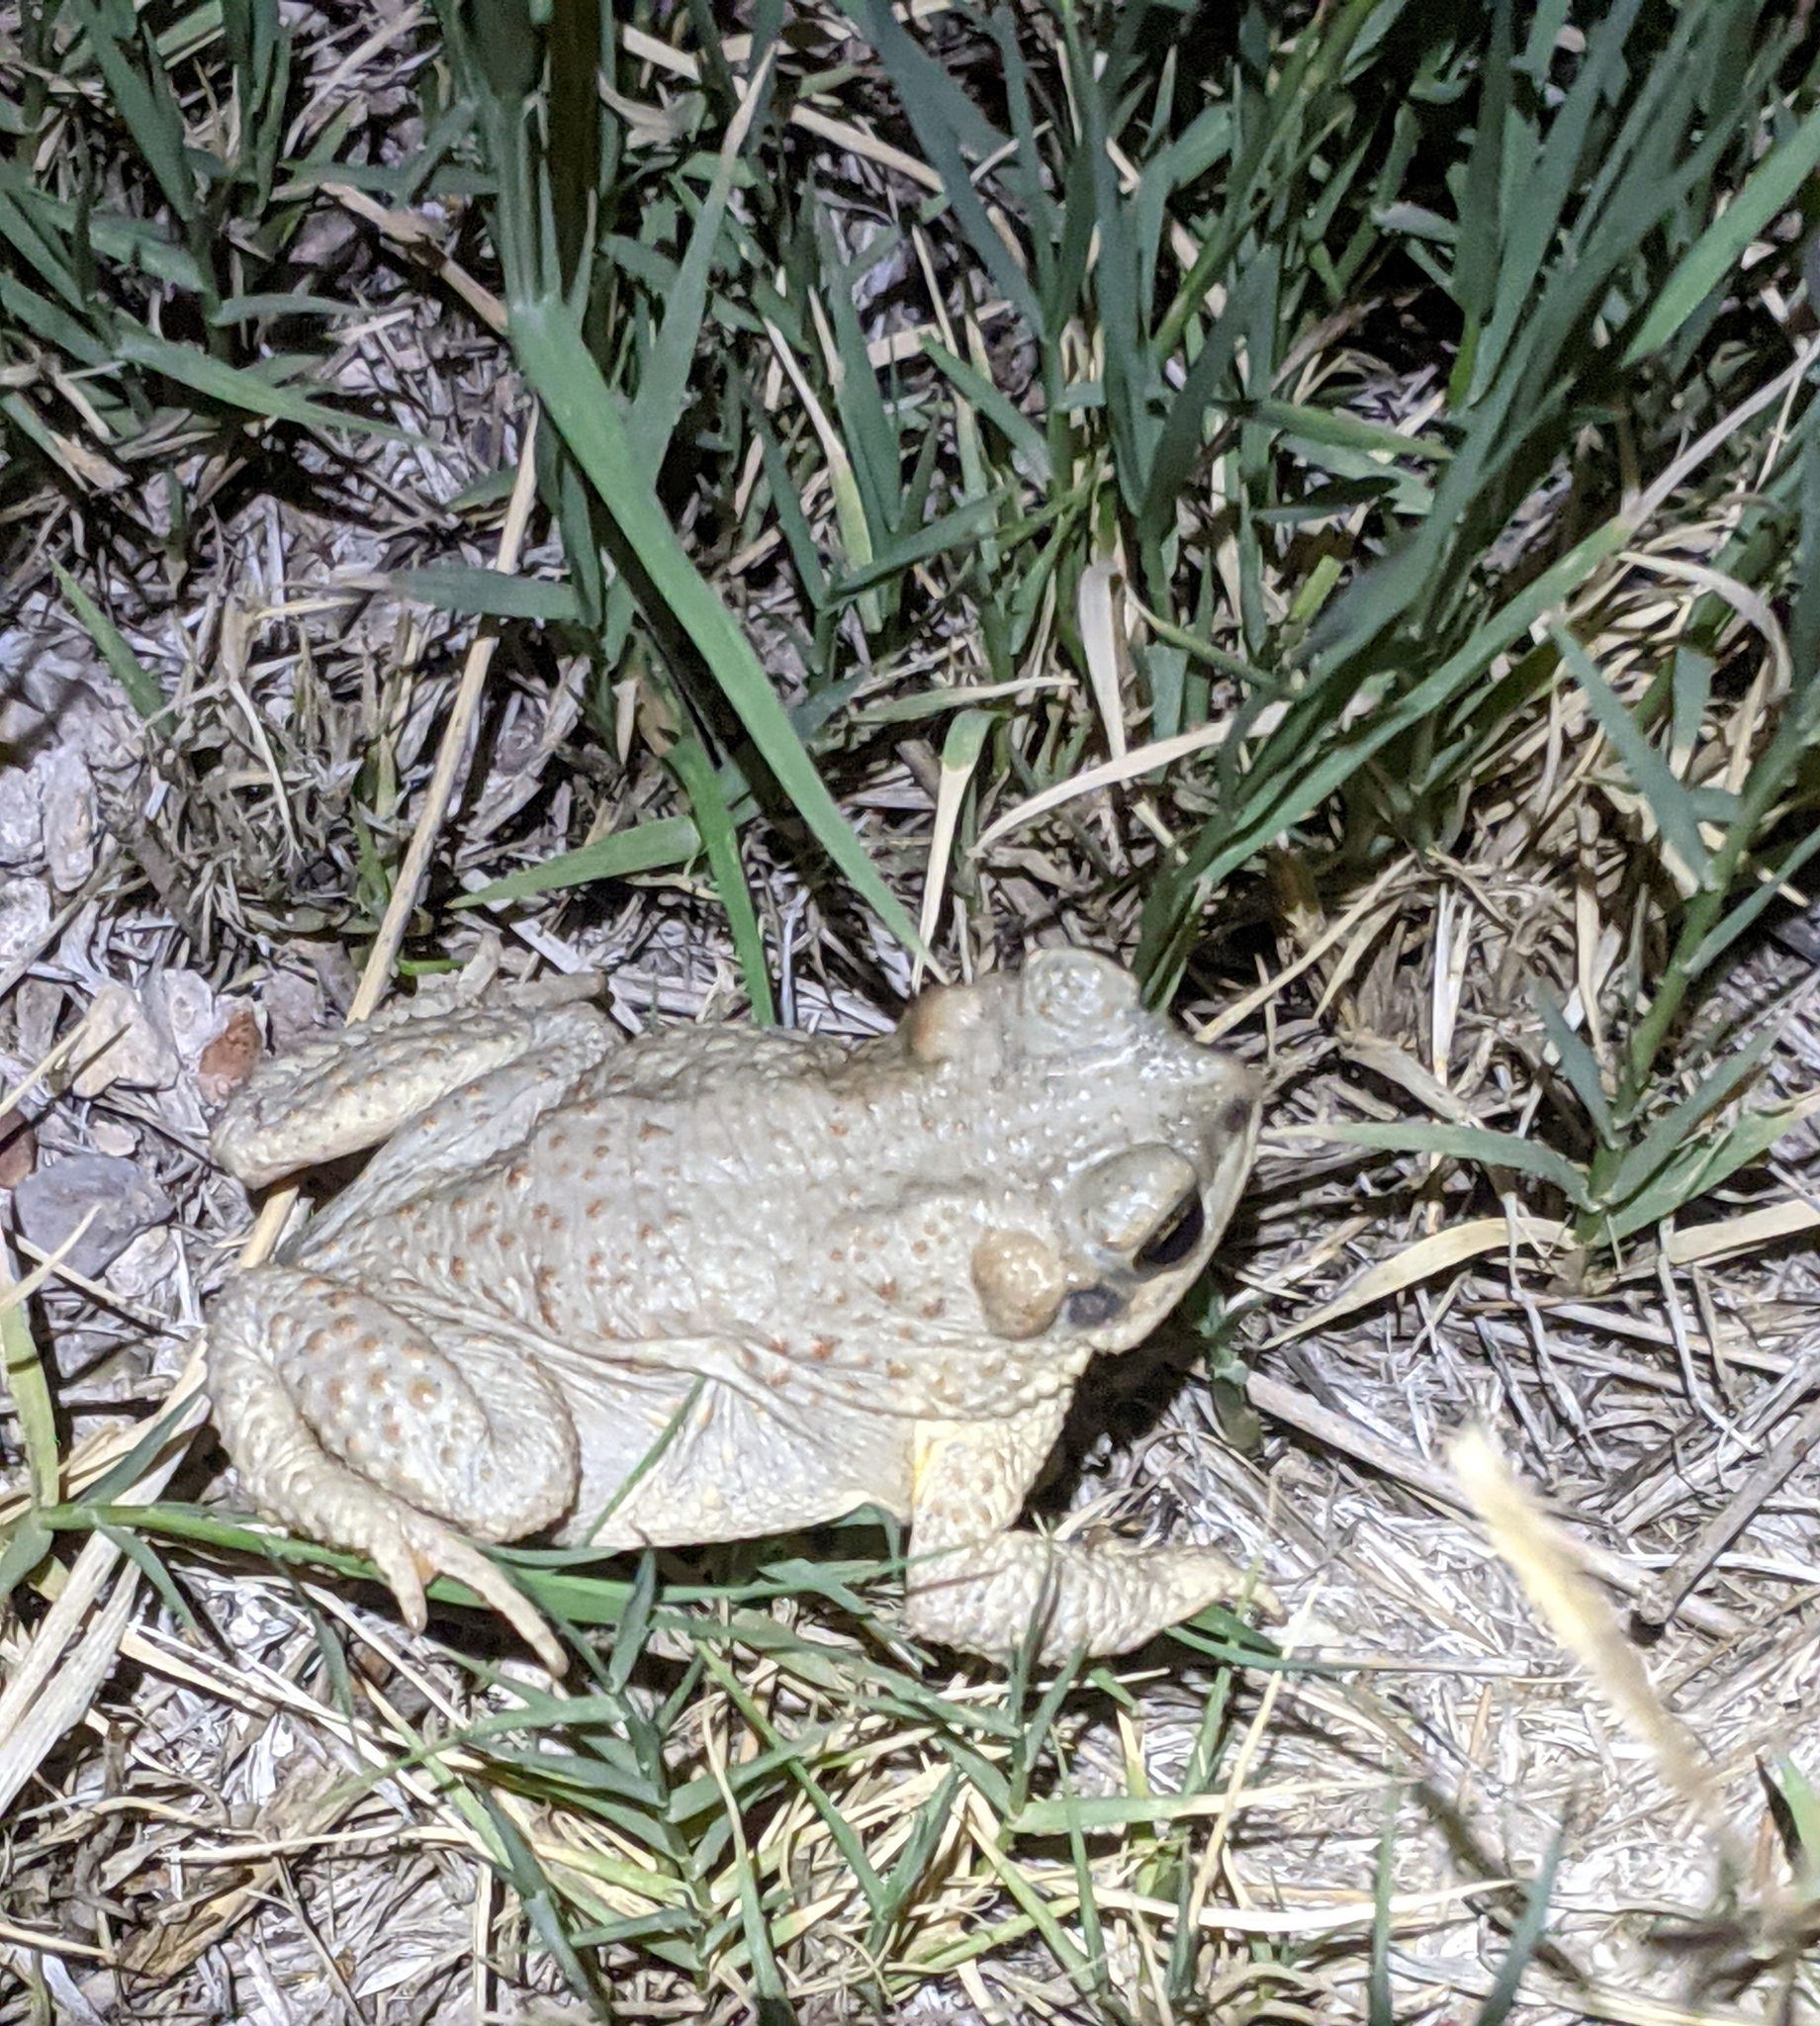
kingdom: Animalia
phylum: Chordata
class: Amphibia
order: Anura
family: Bufonidae
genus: Anaxyrus
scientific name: Anaxyrus punctatus
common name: Red-spotted toad
